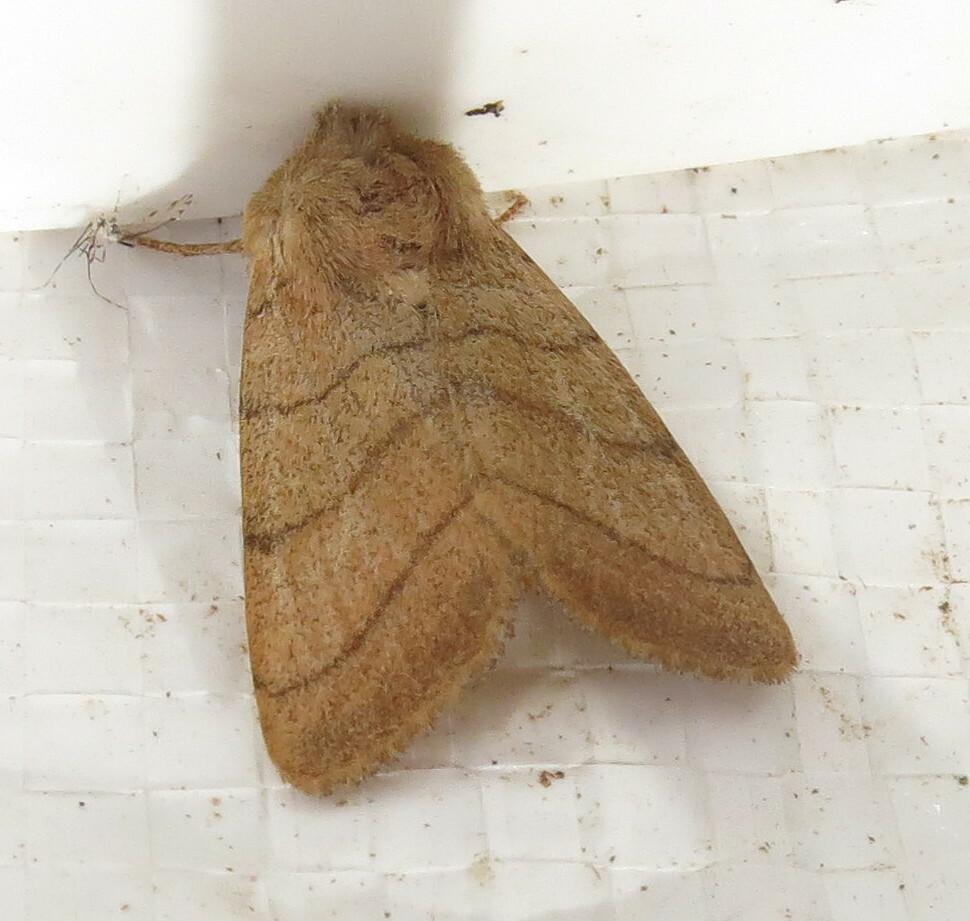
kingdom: Animalia
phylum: Arthropoda
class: Insecta
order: Lepidoptera
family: Noctuidae
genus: Charanyca
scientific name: Charanyca trigrammica
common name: Treble lines
